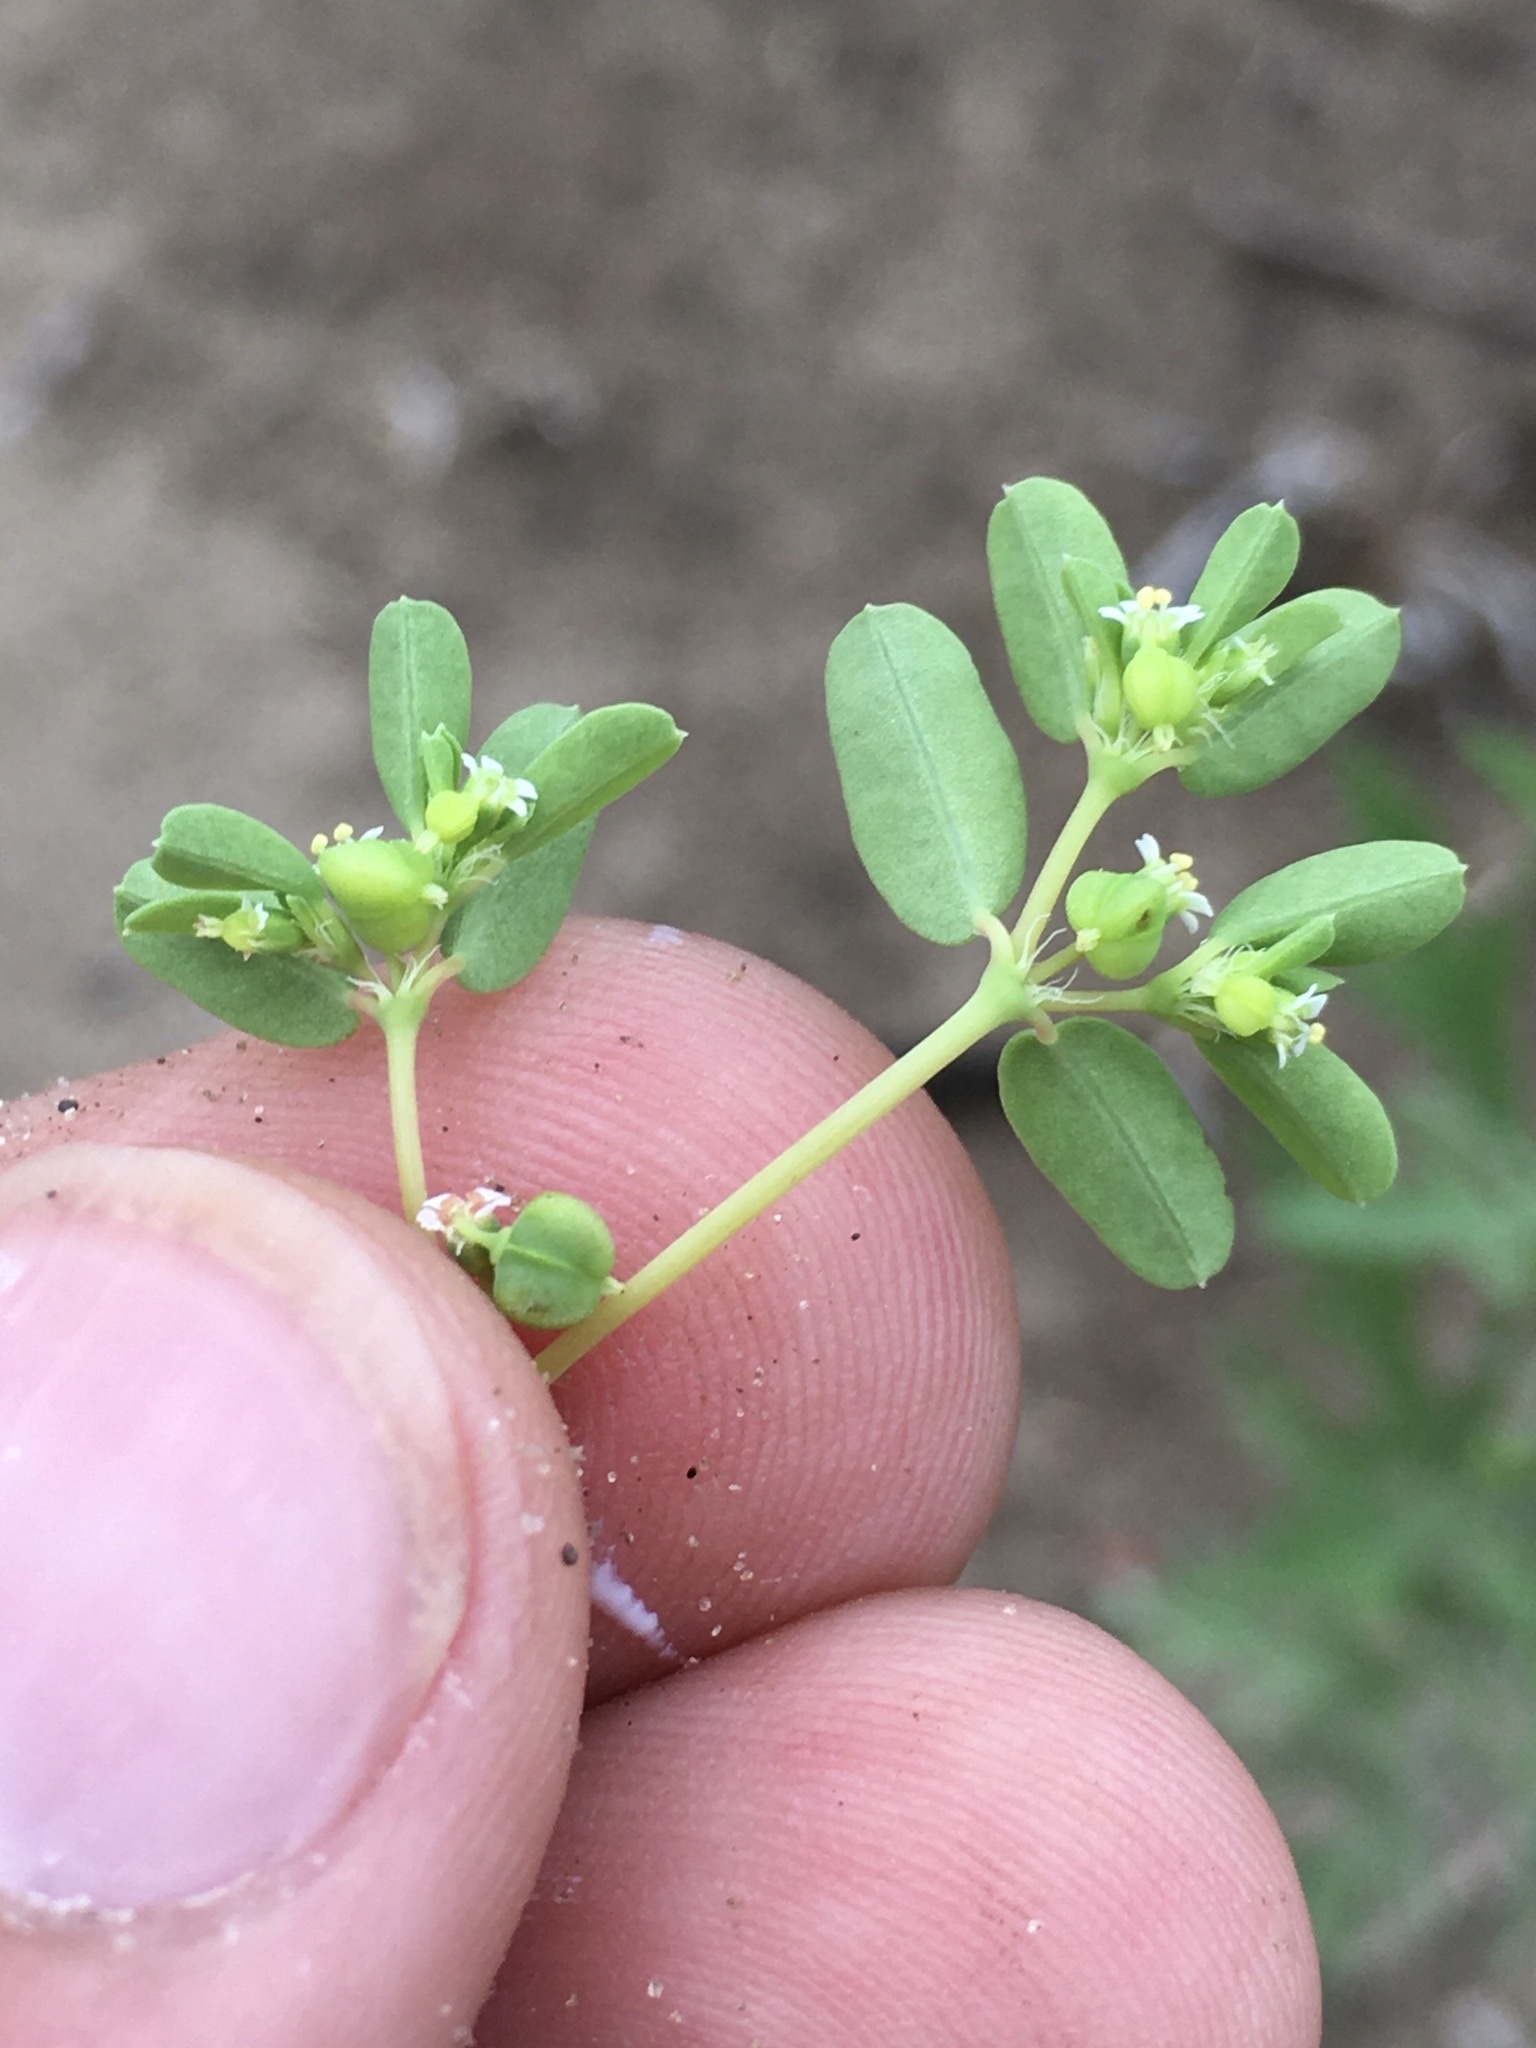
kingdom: Plantae
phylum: Tracheophyta
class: Magnoliopsida
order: Malpighiales
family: Euphorbiaceae
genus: Euphorbia
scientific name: Euphorbia geyeri
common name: Geyer's spurge
